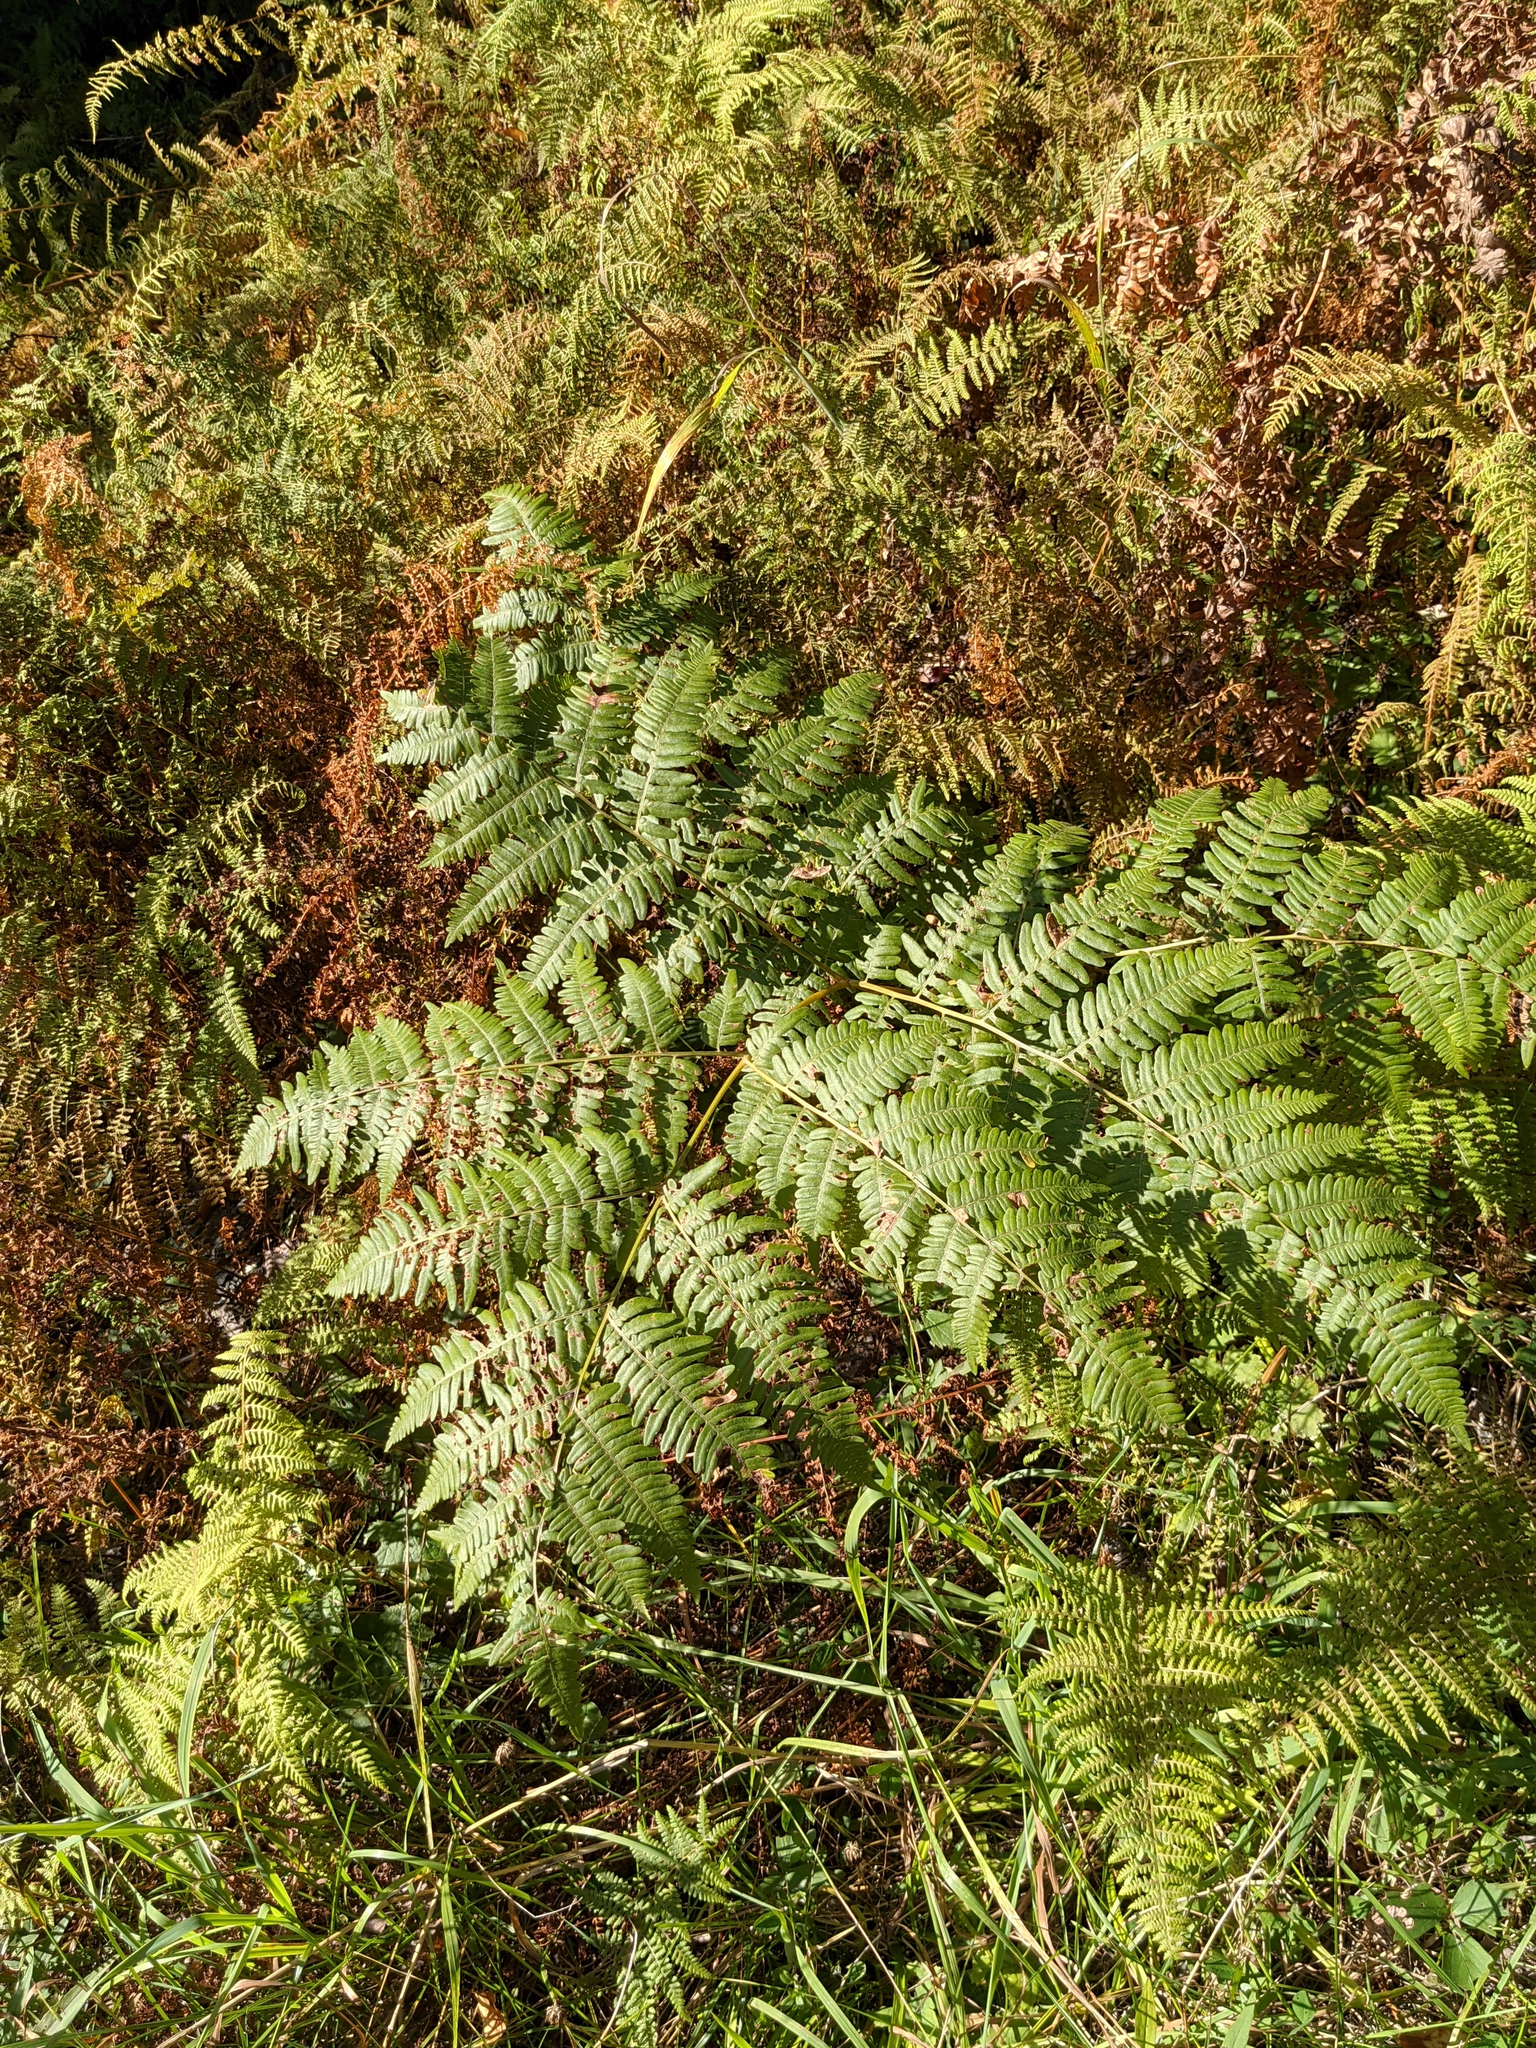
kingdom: Plantae
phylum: Tracheophyta
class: Polypodiopsida
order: Polypodiales
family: Dennstaedtiaceae
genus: Pteridium
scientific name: Pteridium aquilinum
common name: Bracken
